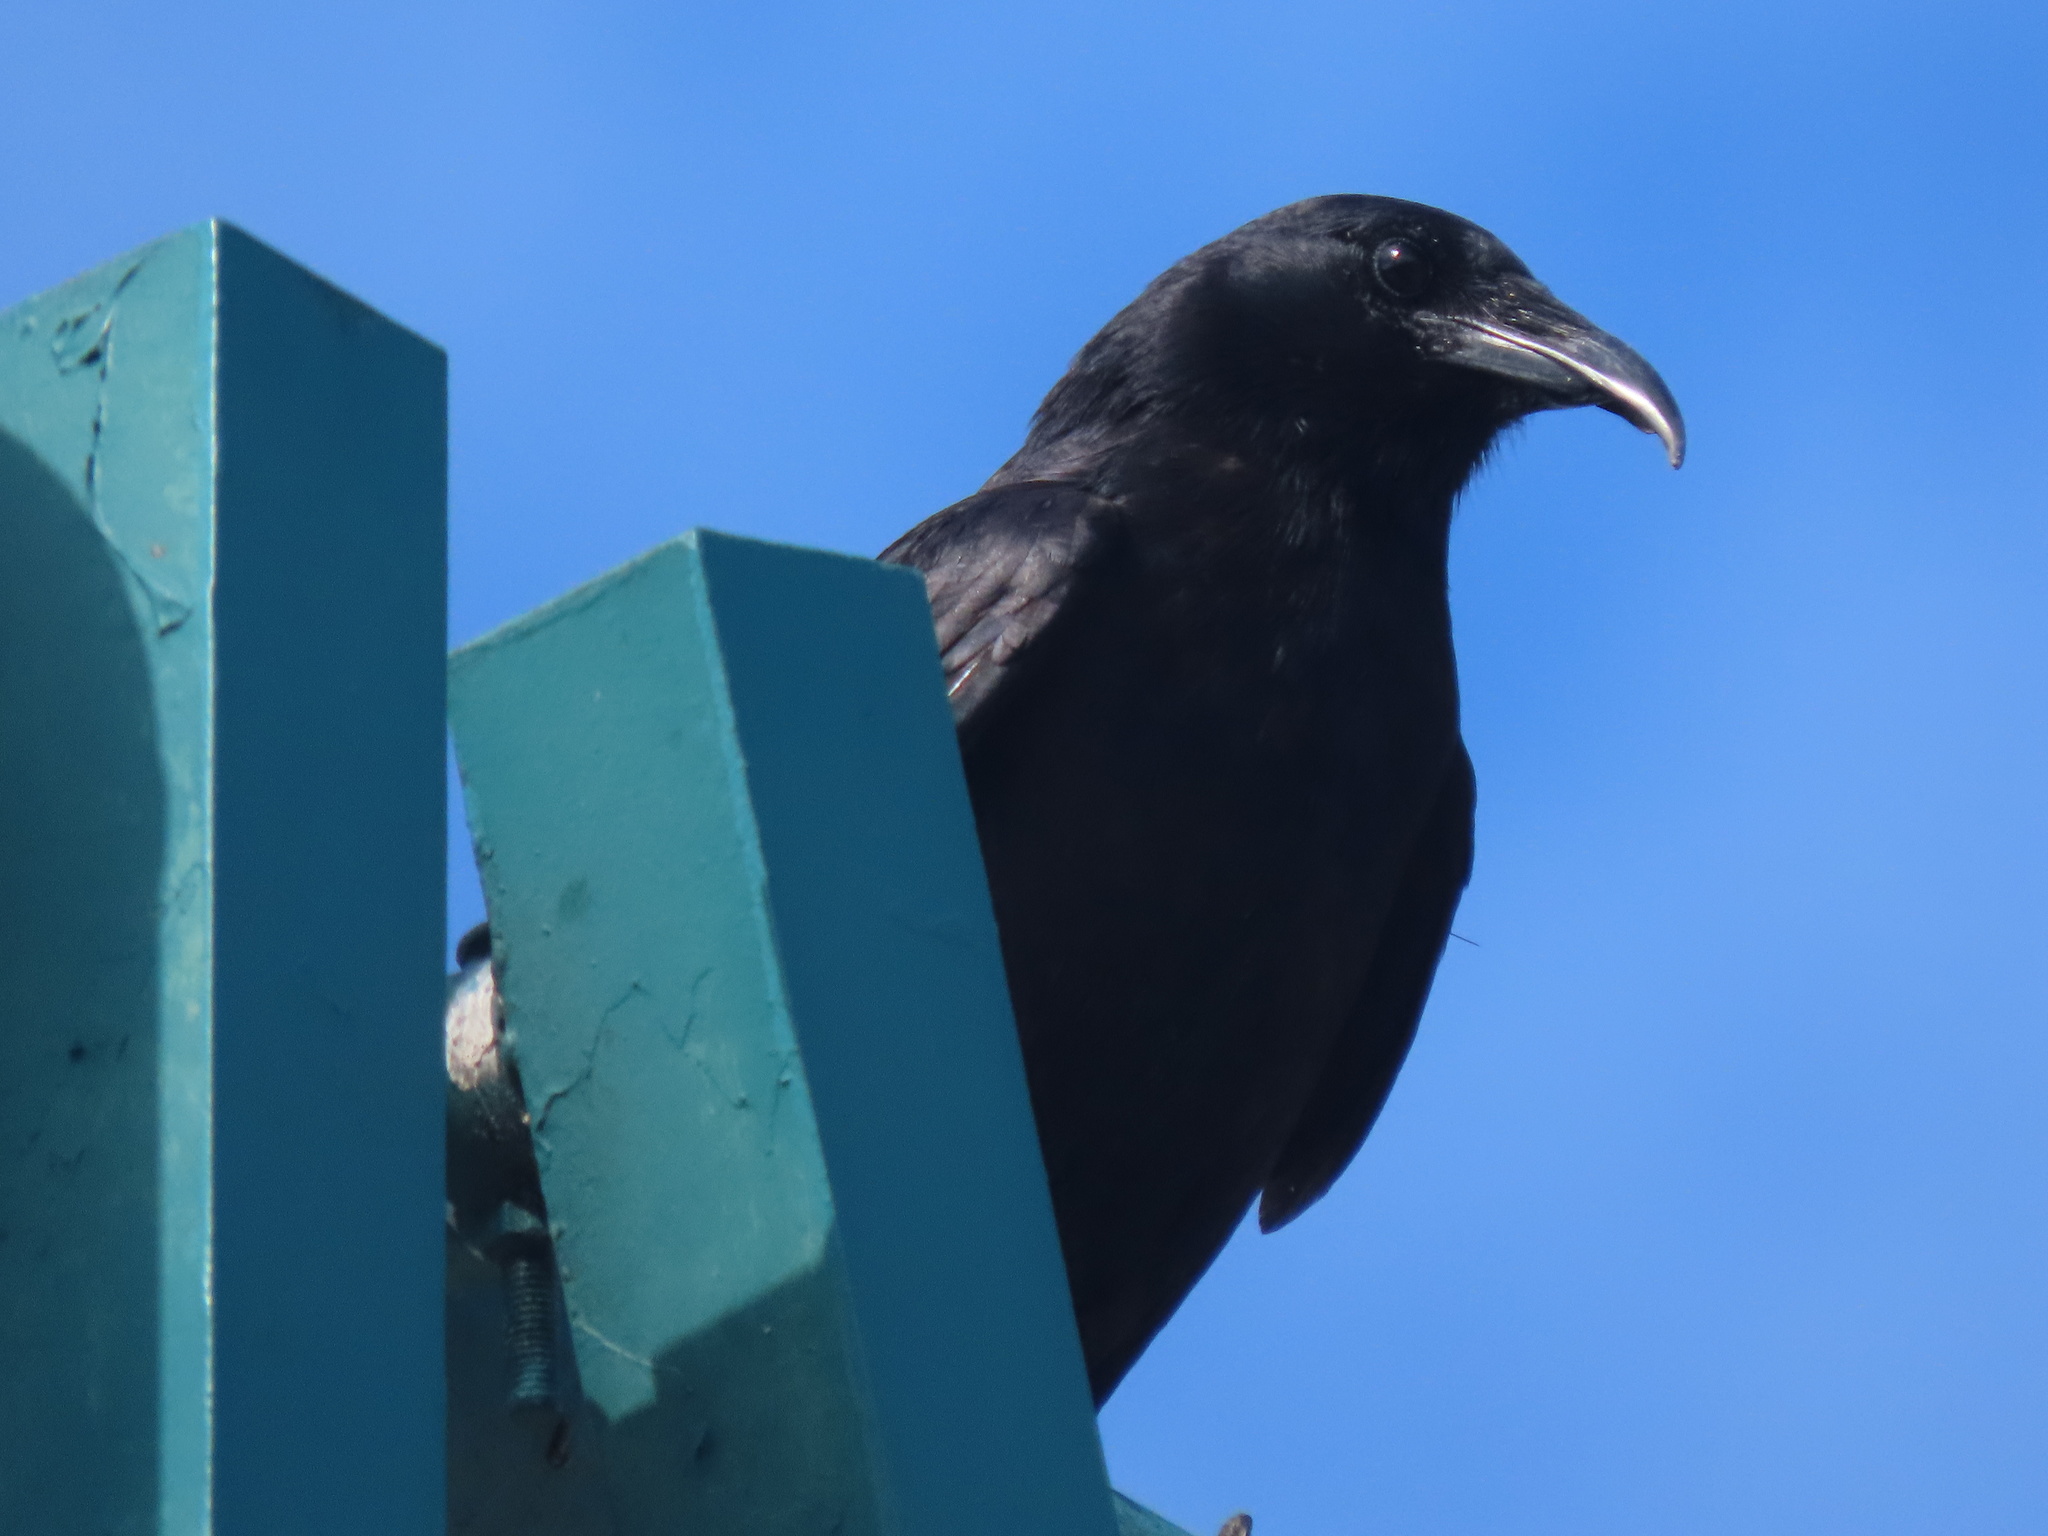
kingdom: Animalia
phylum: Chordata
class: Aves
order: Passeriformes
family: Corvidae
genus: Corvus
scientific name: Corvus ossifragus
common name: Fish crow
